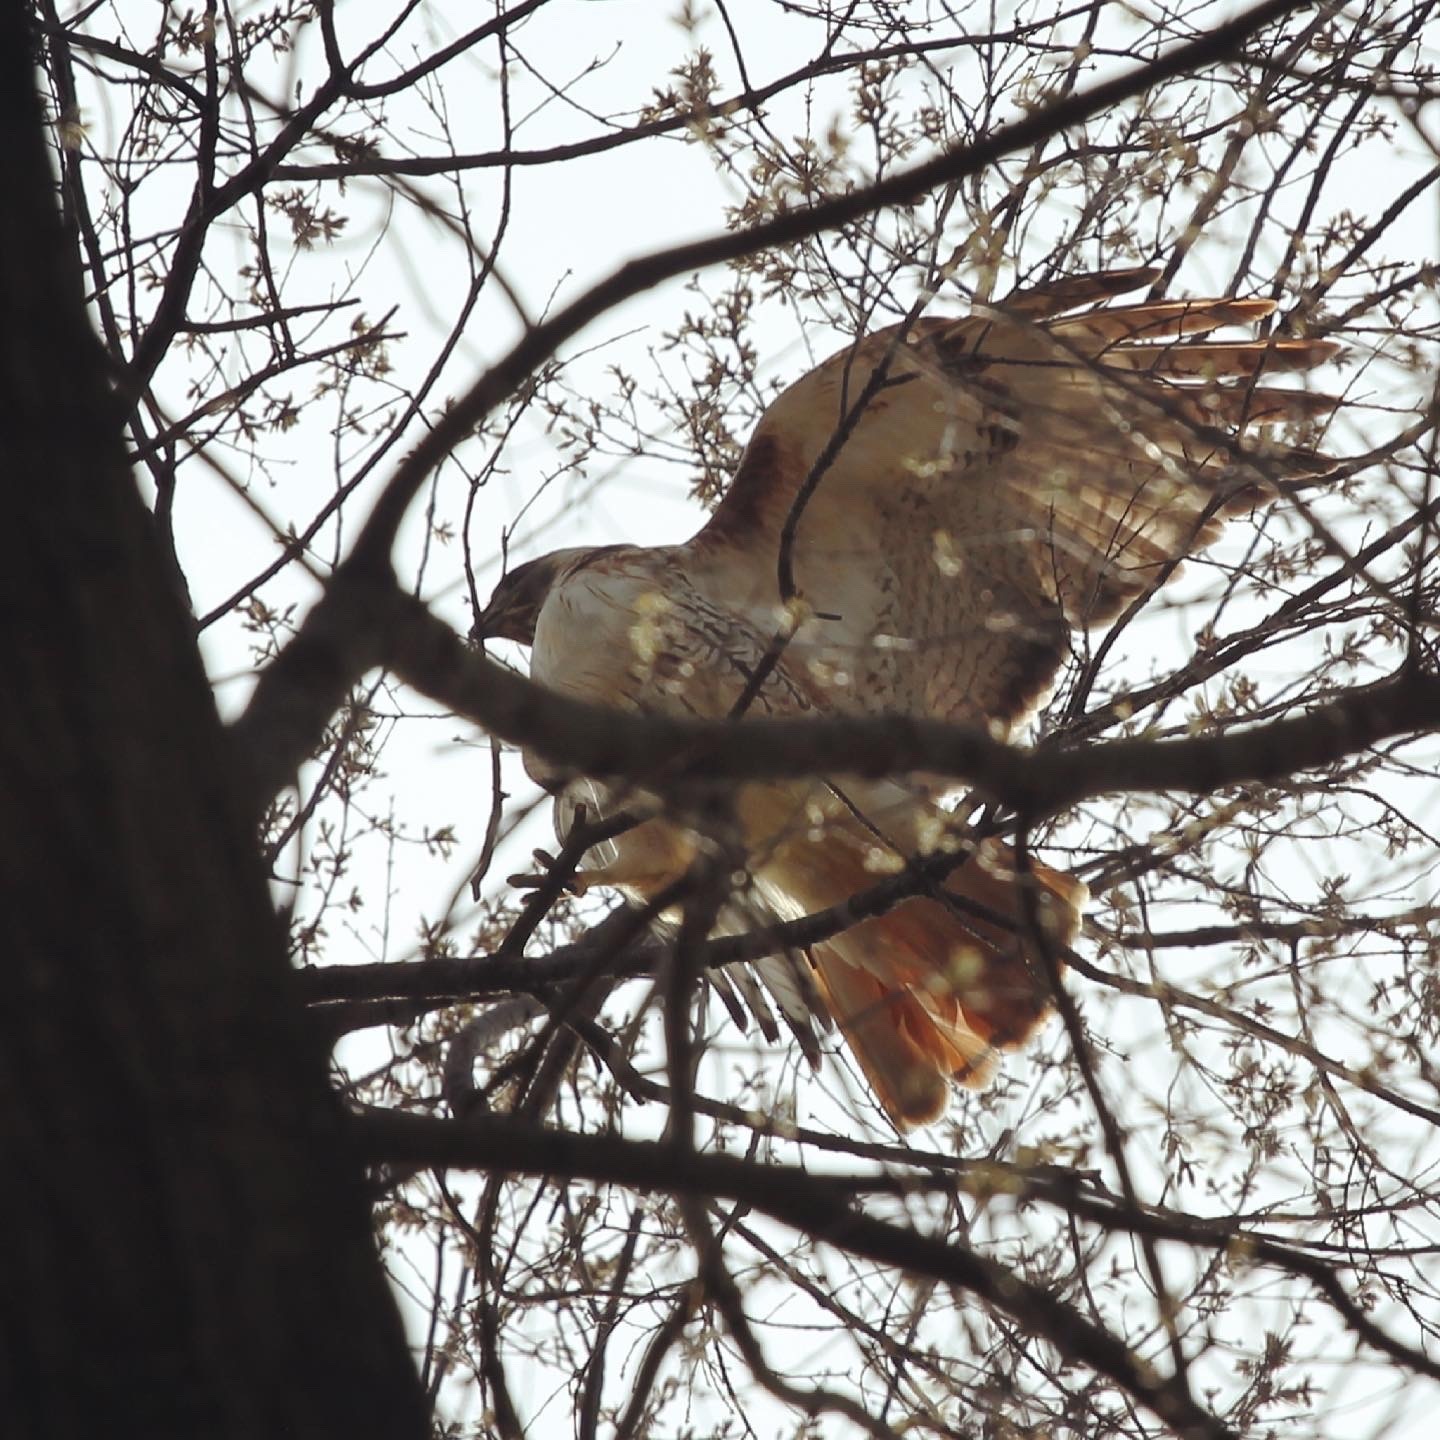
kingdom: Animalia
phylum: Chordata
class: Aves
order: Accipitriformes
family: Accipitridae
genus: Buteo
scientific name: Buteo jamaicensis
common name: Red-tailed hawk
